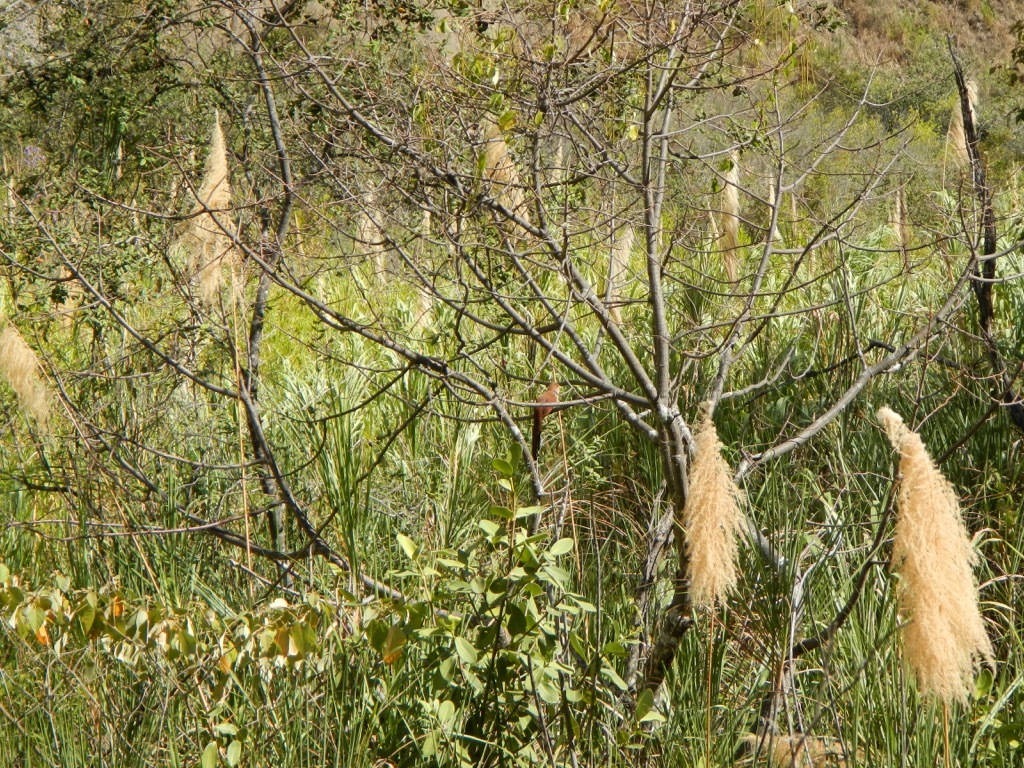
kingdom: Animalia
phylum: Chordata
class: Aves
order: Cuculiformes
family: Cuculidae
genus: Piaya
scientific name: Piaya cayana
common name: Squirrel cuckoo
